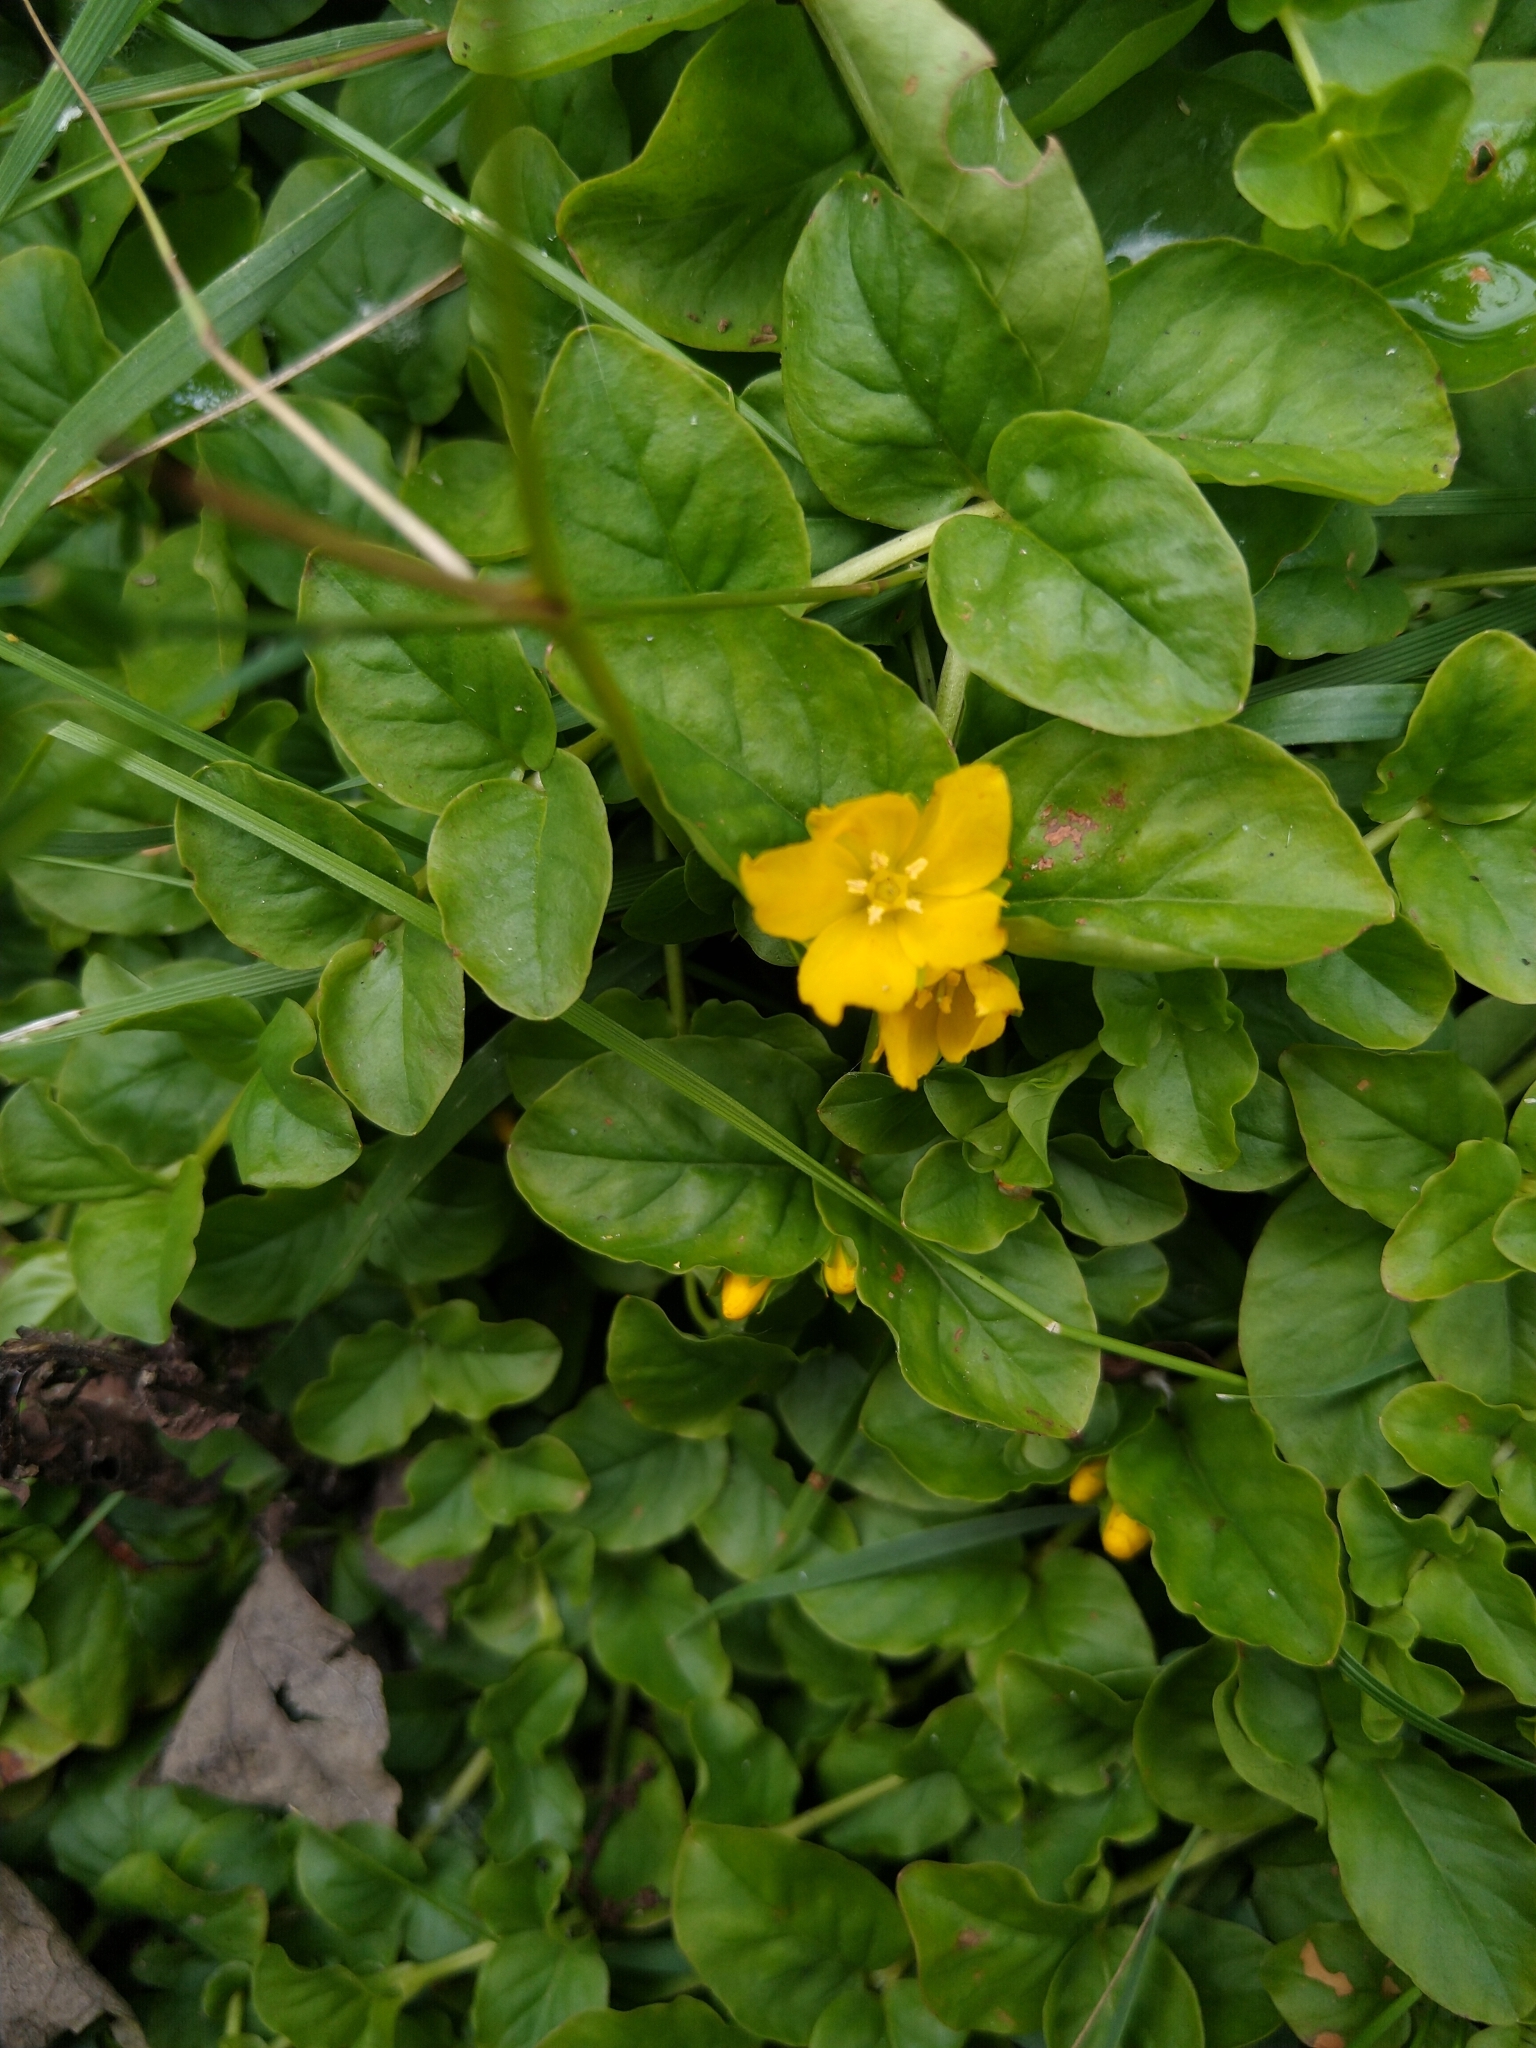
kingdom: Plantae
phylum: Tracheophyta
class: Magnoliopsida
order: Ericales
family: Primulaceae
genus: Lysimachia
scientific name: Lysimachia nummularia
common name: Moneywort
